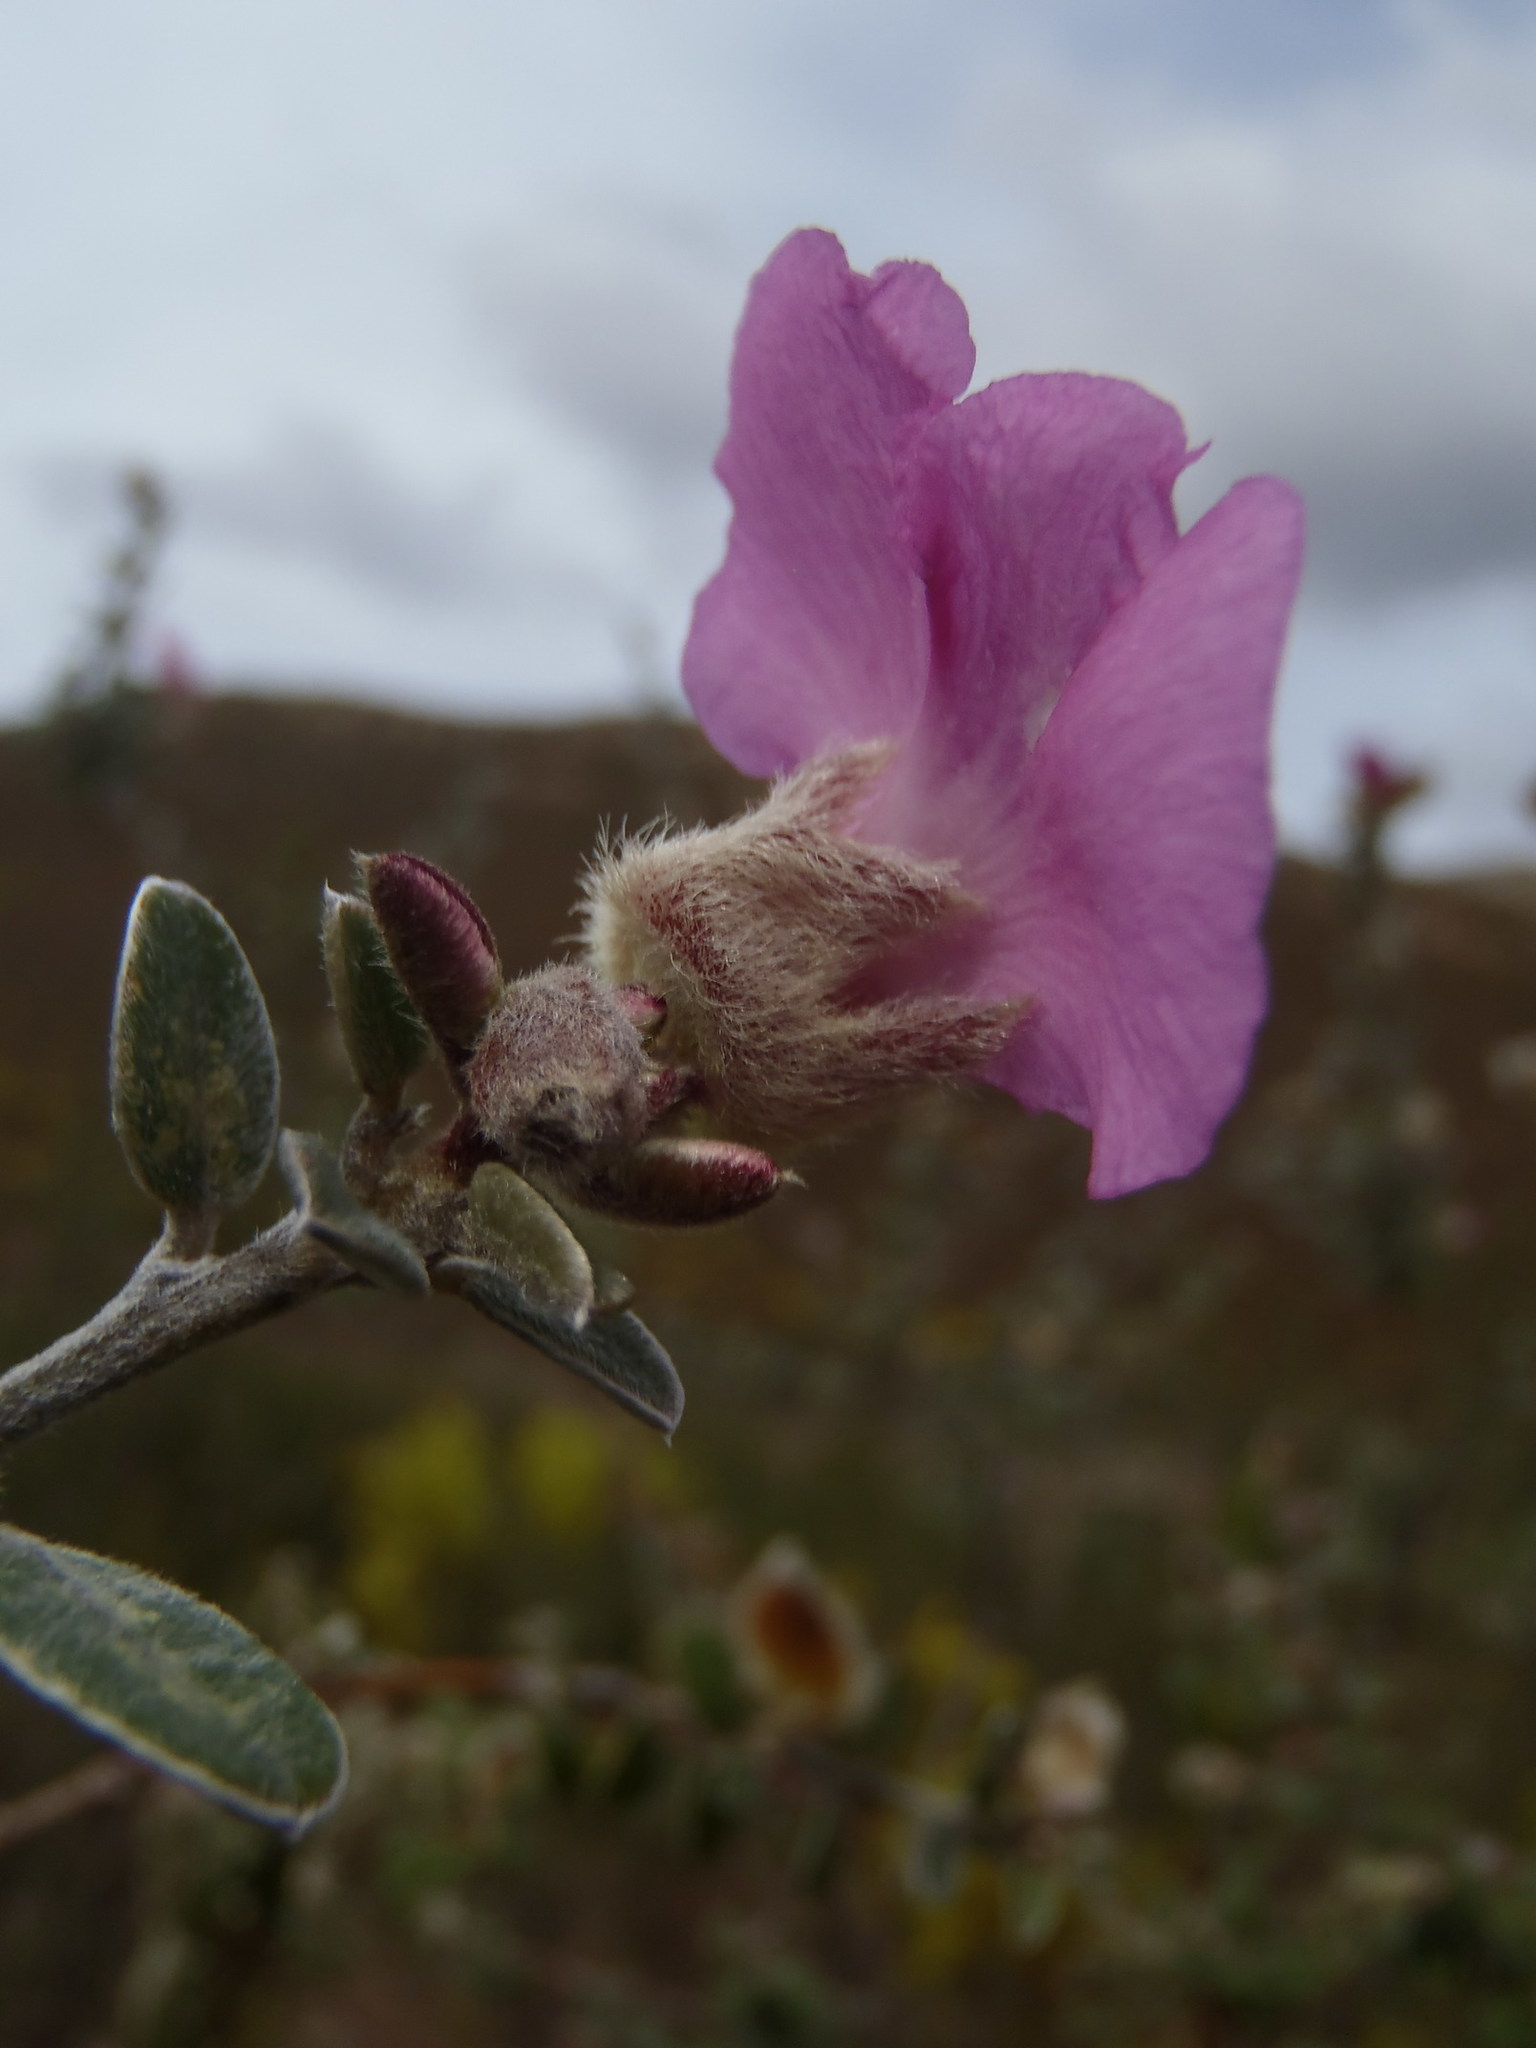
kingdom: Plantae
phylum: Tracheophyta
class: Magnoliopsida
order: Fabales
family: Fabaceae
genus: Podalyria
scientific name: Podalyria burchellii
